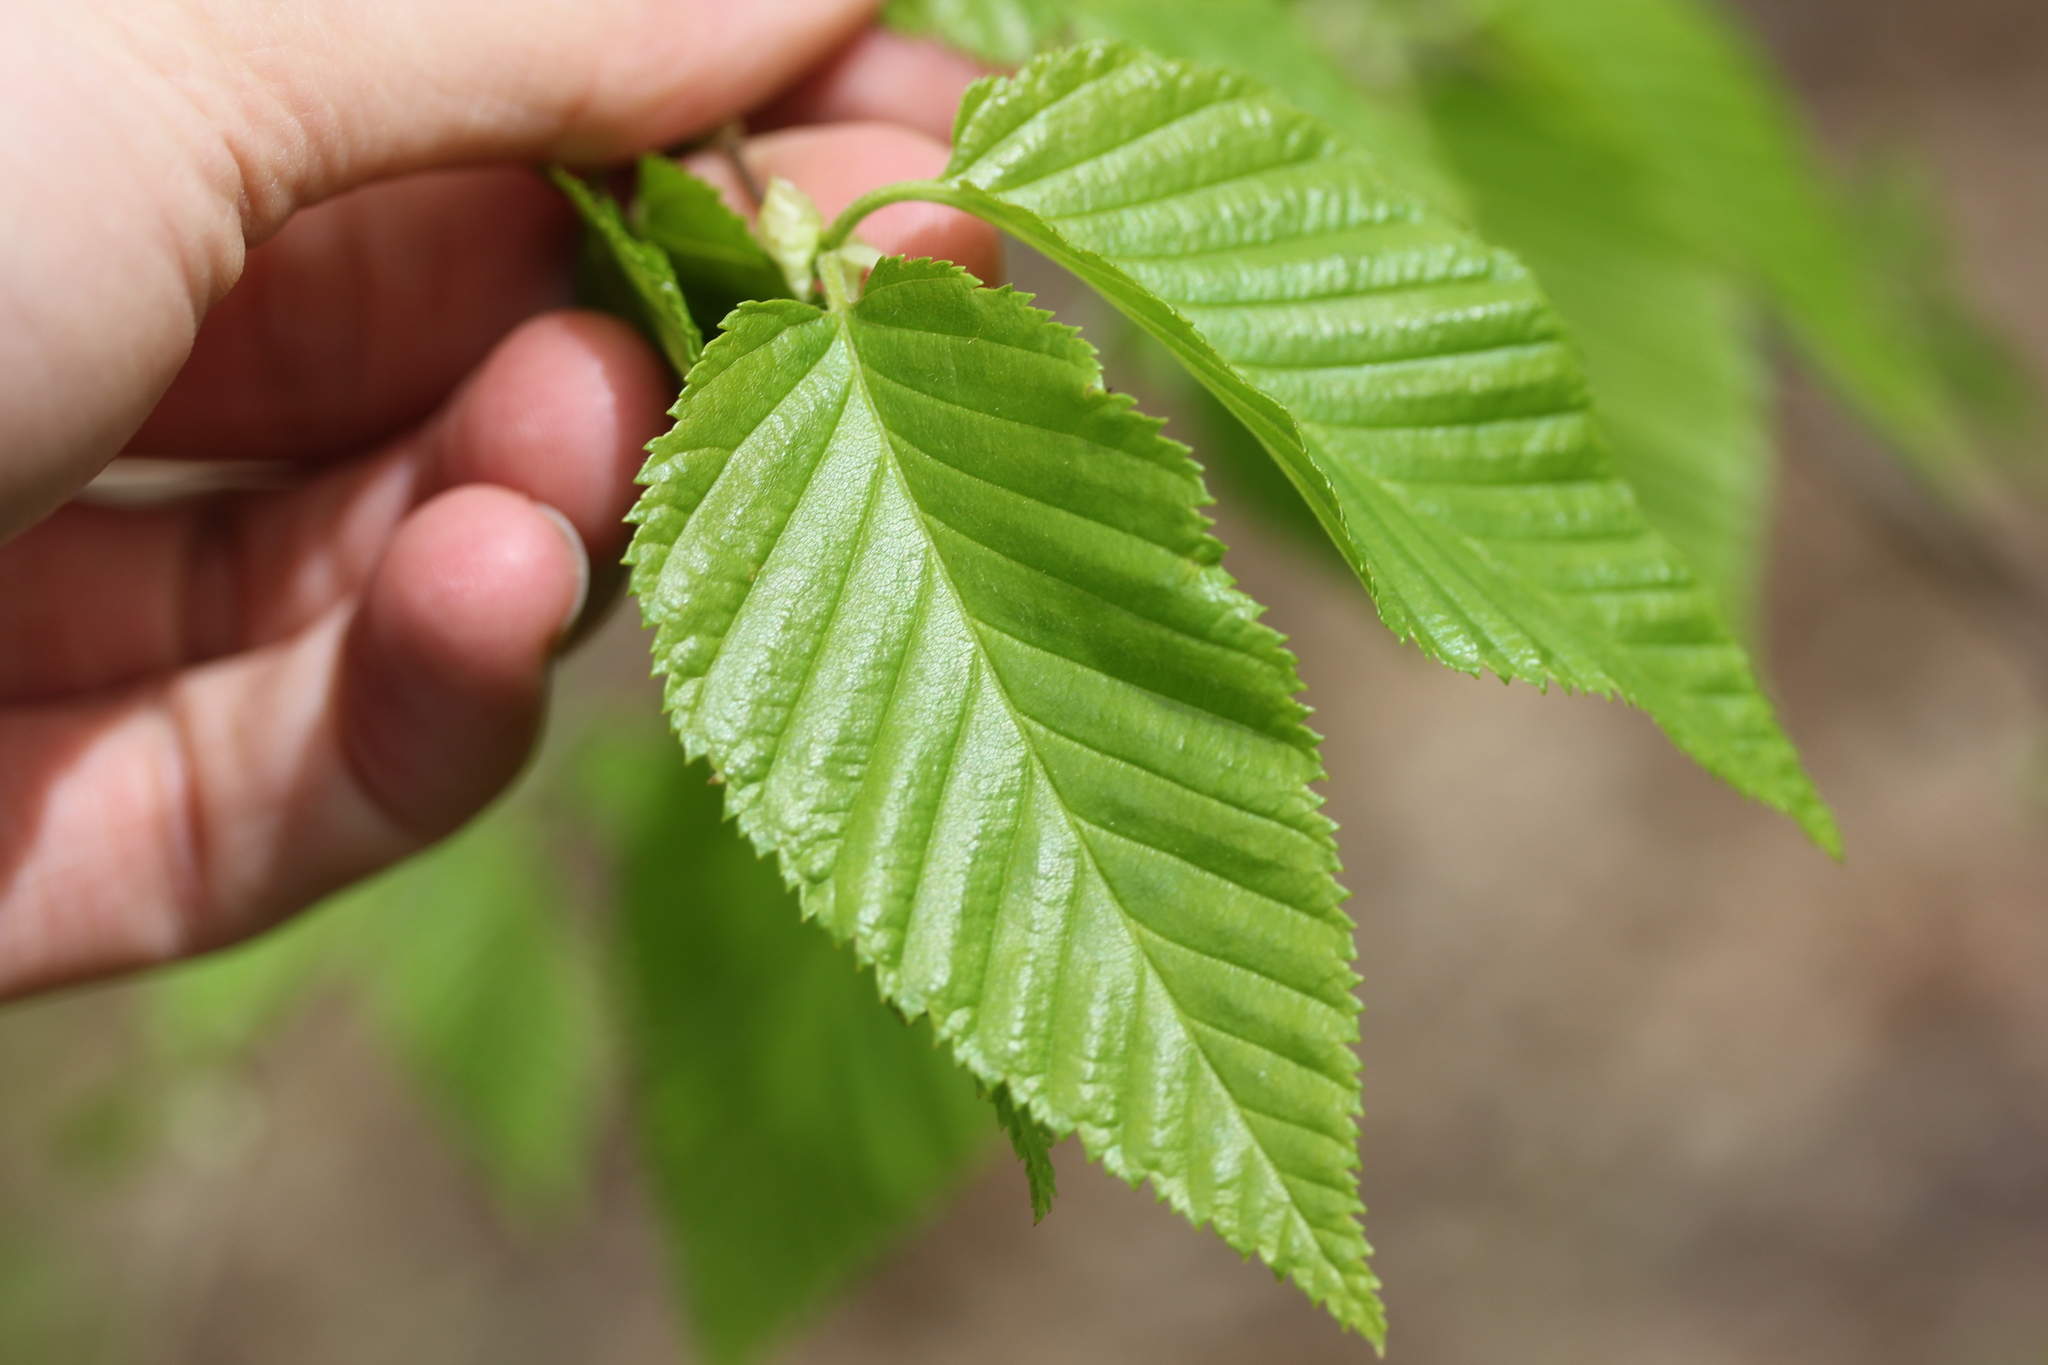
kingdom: Plantae
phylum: Tracheophyta
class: Magnoliopsida
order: Fagales
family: Betulaceae
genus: Betula
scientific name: Betula lenta
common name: Black birch
